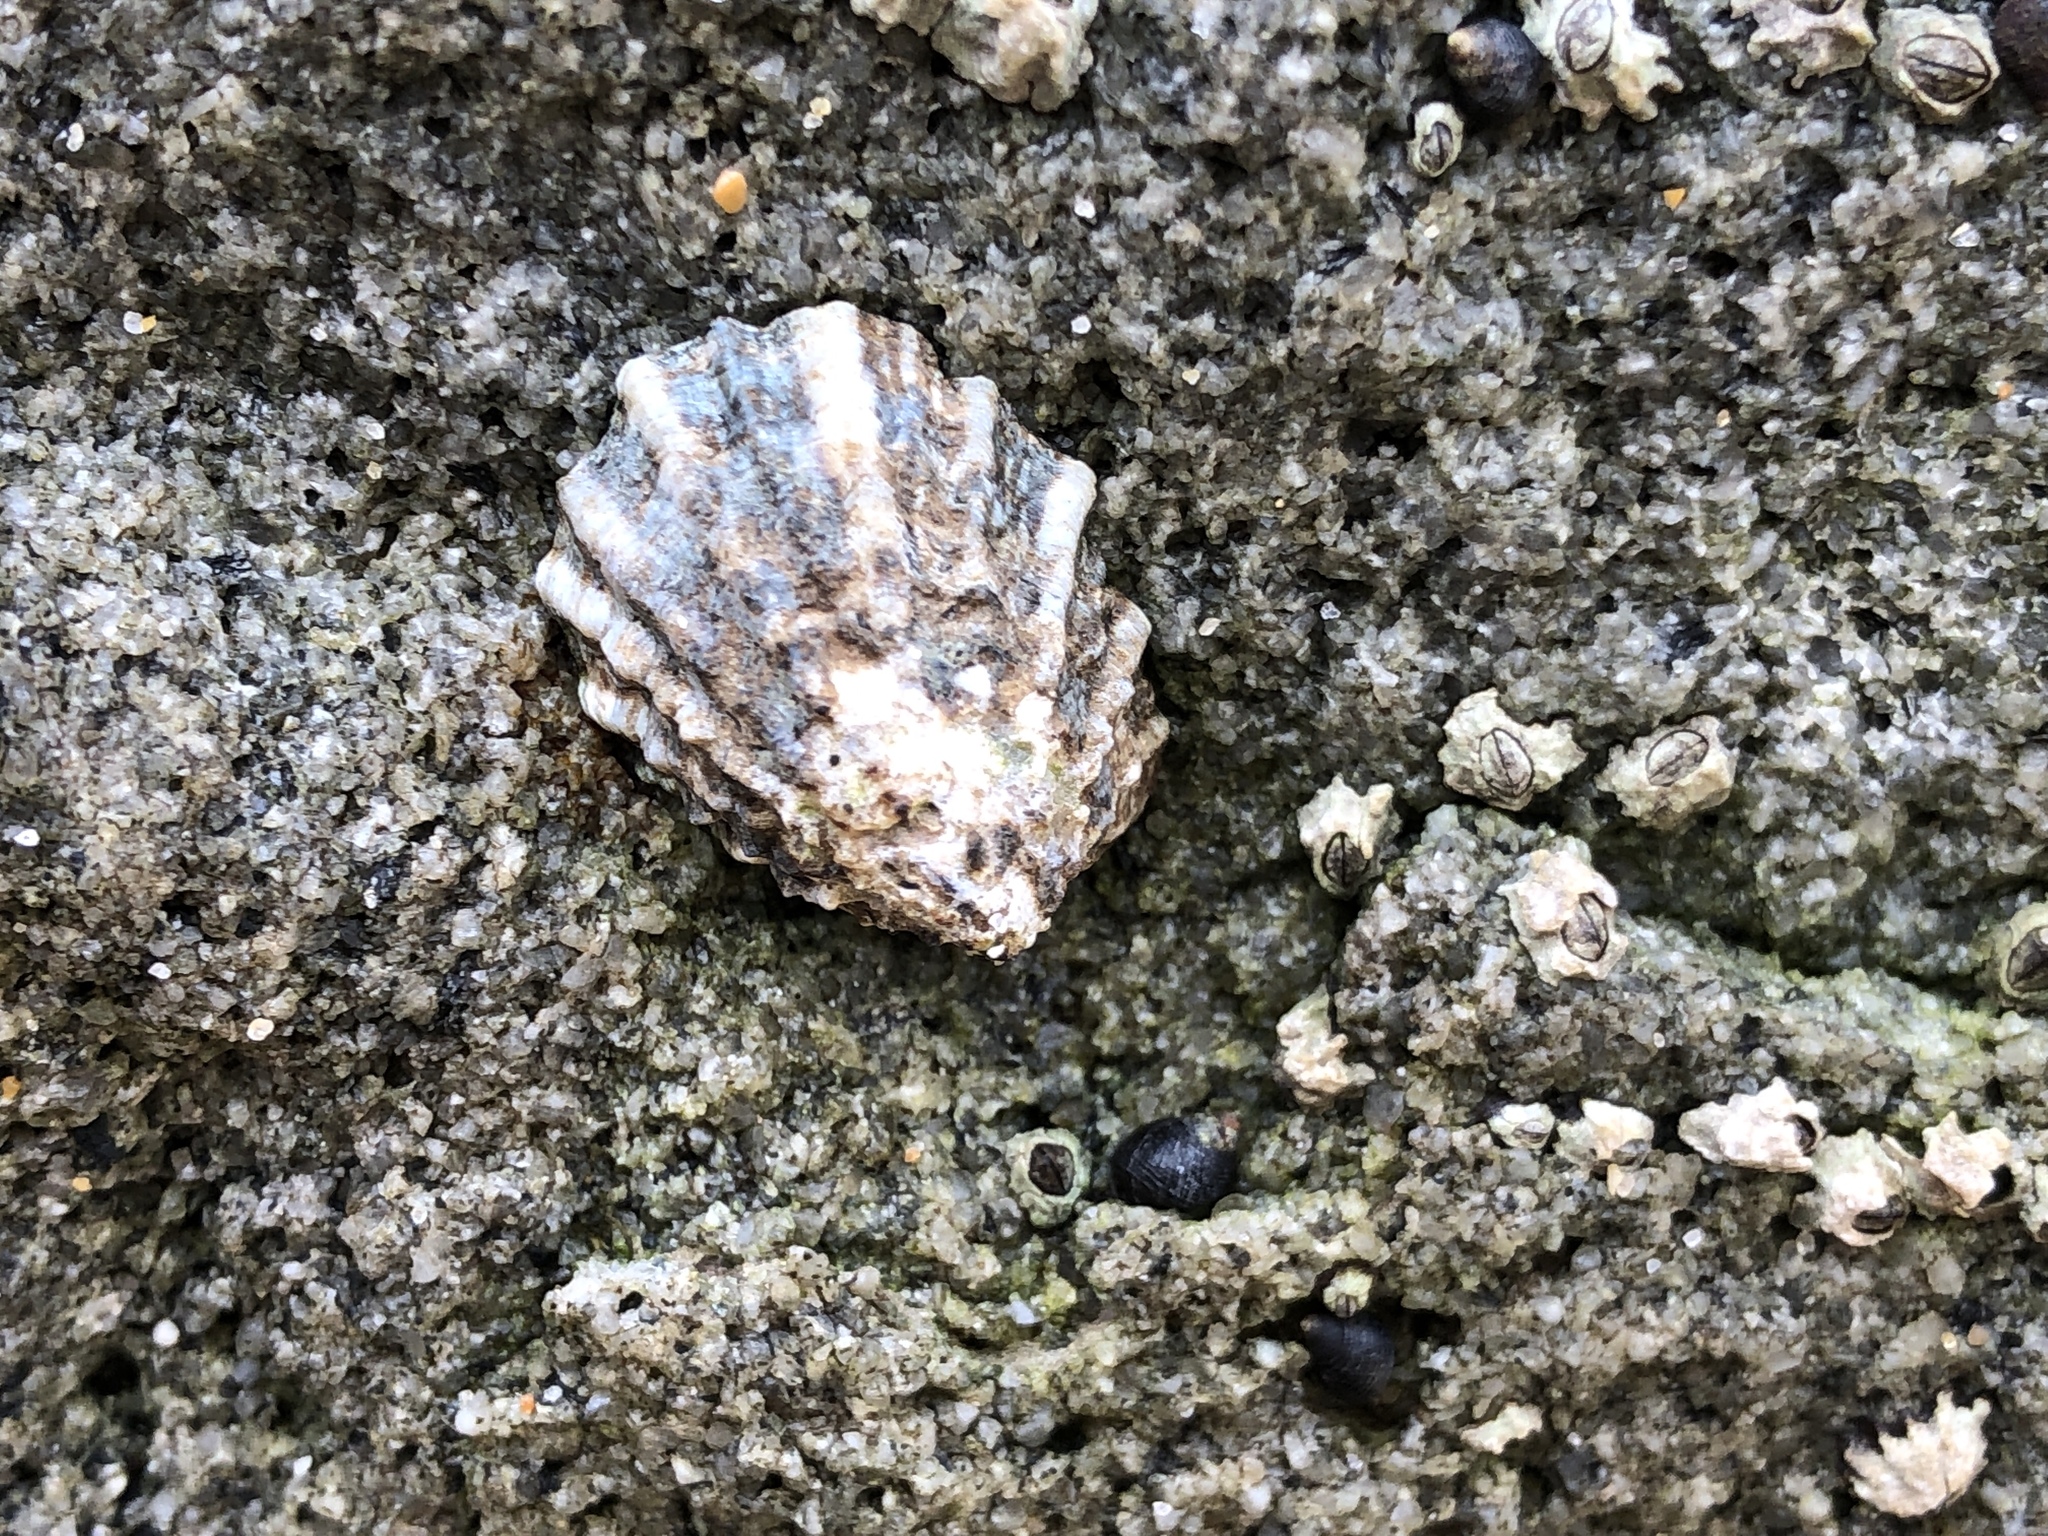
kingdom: Animalia
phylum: Mollusca
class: Gastropoda
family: Lottiidae
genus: Lottia
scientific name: Lottia scabra
